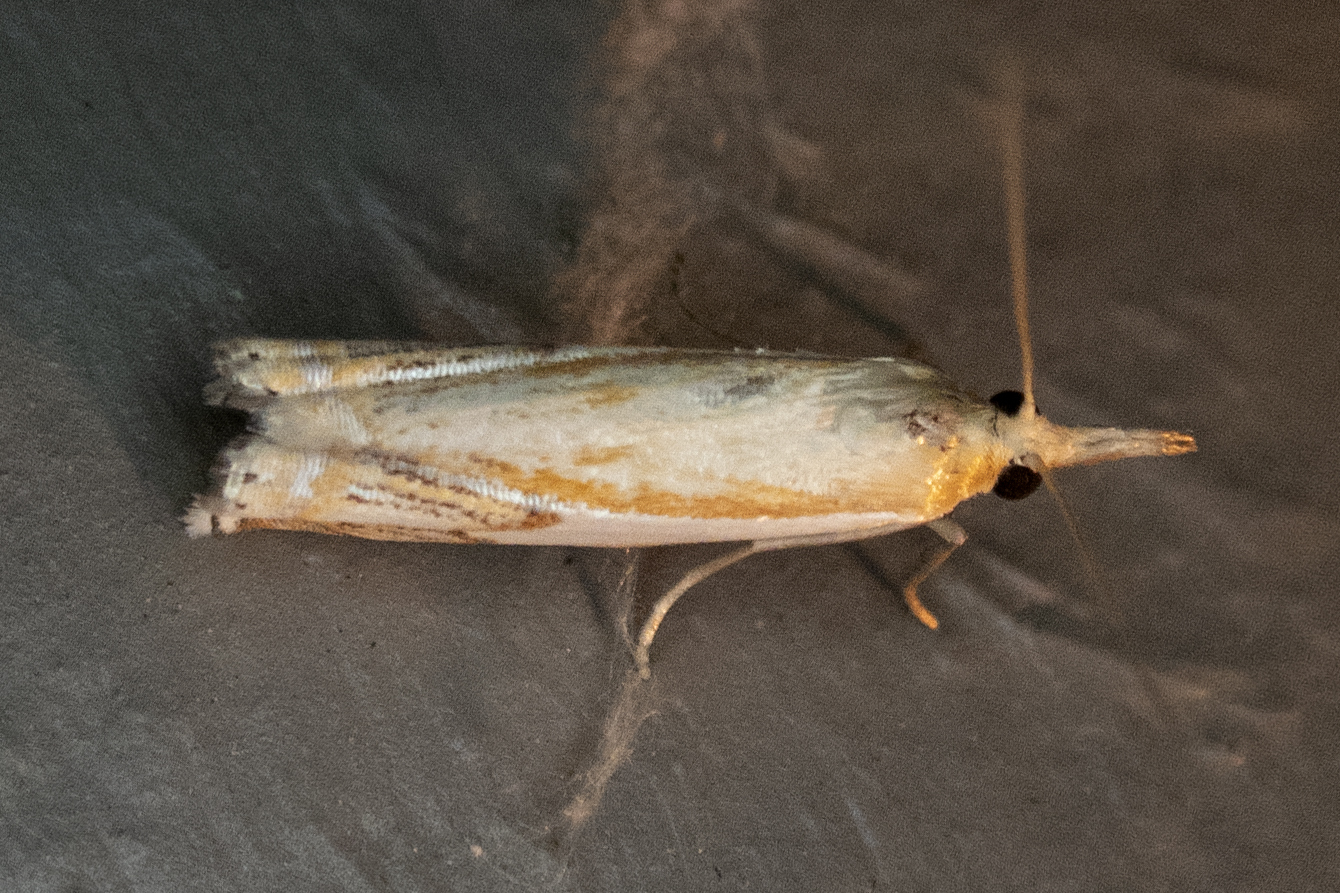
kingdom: Animalia
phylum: Arthropoda
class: Insecta
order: Lepidoptera
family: Crambidae
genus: Crambus
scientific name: Crambus agitatellus
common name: Double-banded grass-veneer
